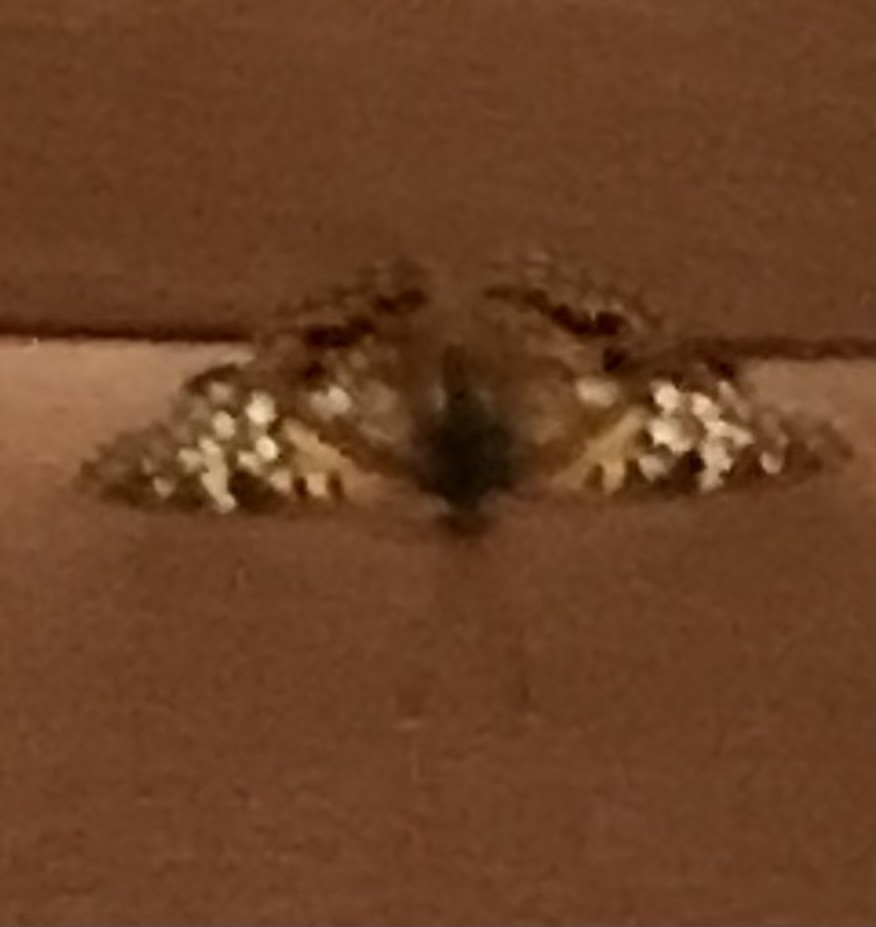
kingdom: Animalia
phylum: Arthropoda
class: Insecta
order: Lepidoptera
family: Nymphalidae
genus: Asterocampa
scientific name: Asterocampa clyton
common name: Tawny emperor
